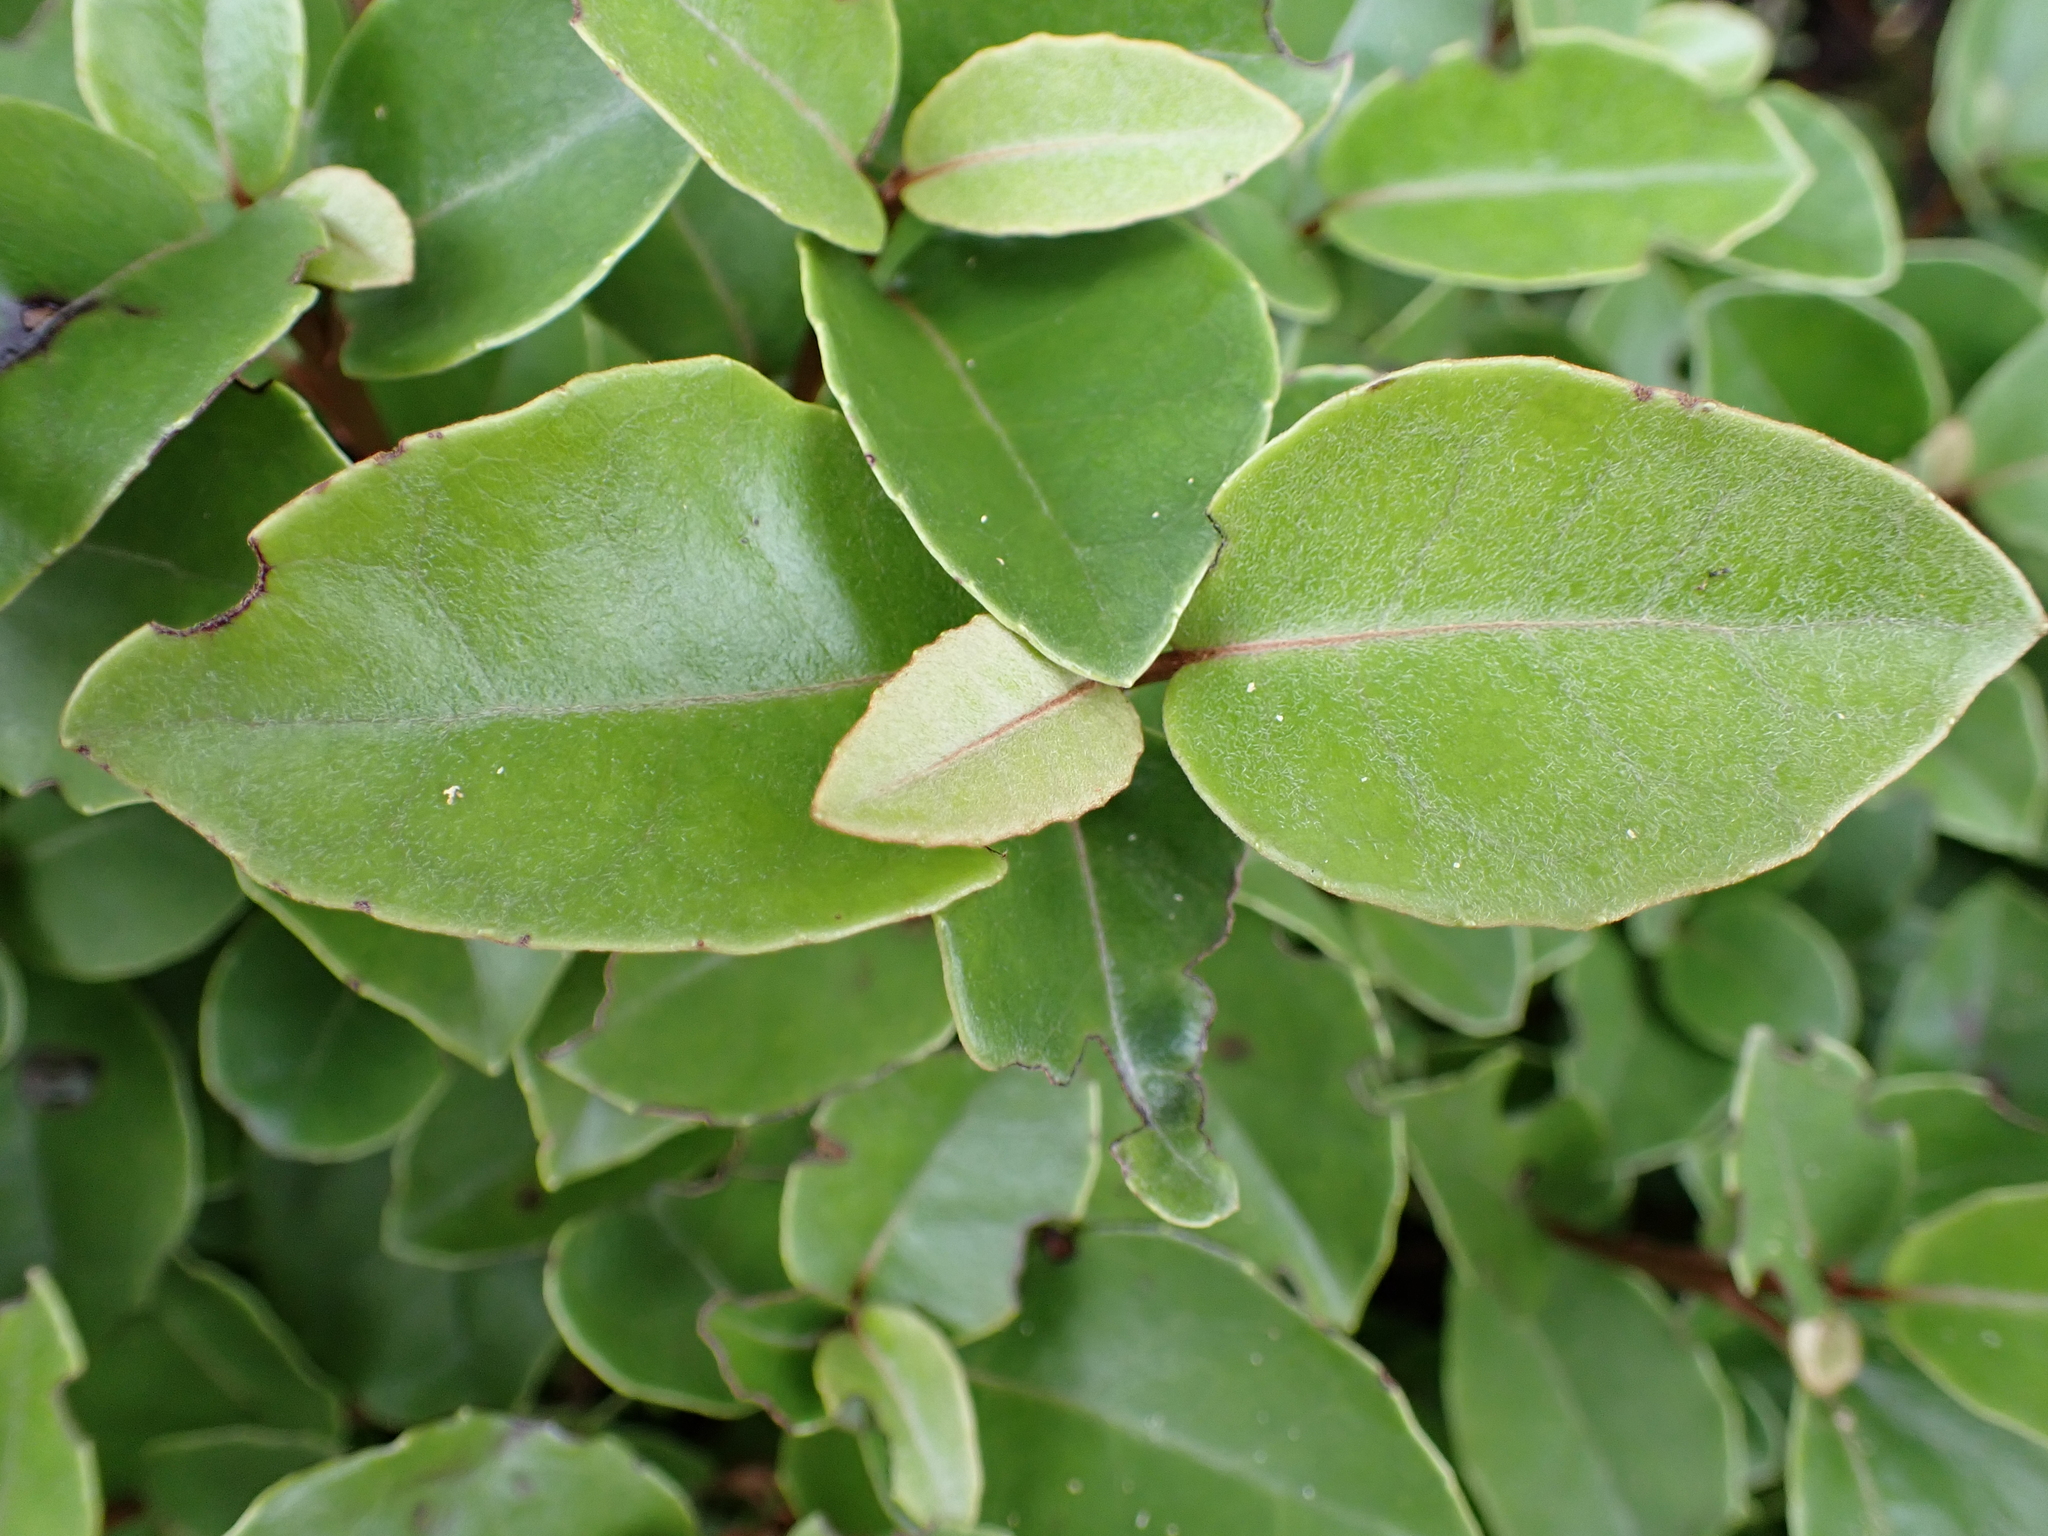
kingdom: Plantae
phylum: Tracheophyta
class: Magnoliopsida
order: Asterales
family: Asteraceae
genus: Olearia
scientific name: Olearia arborescens
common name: Glossy tree daisy
